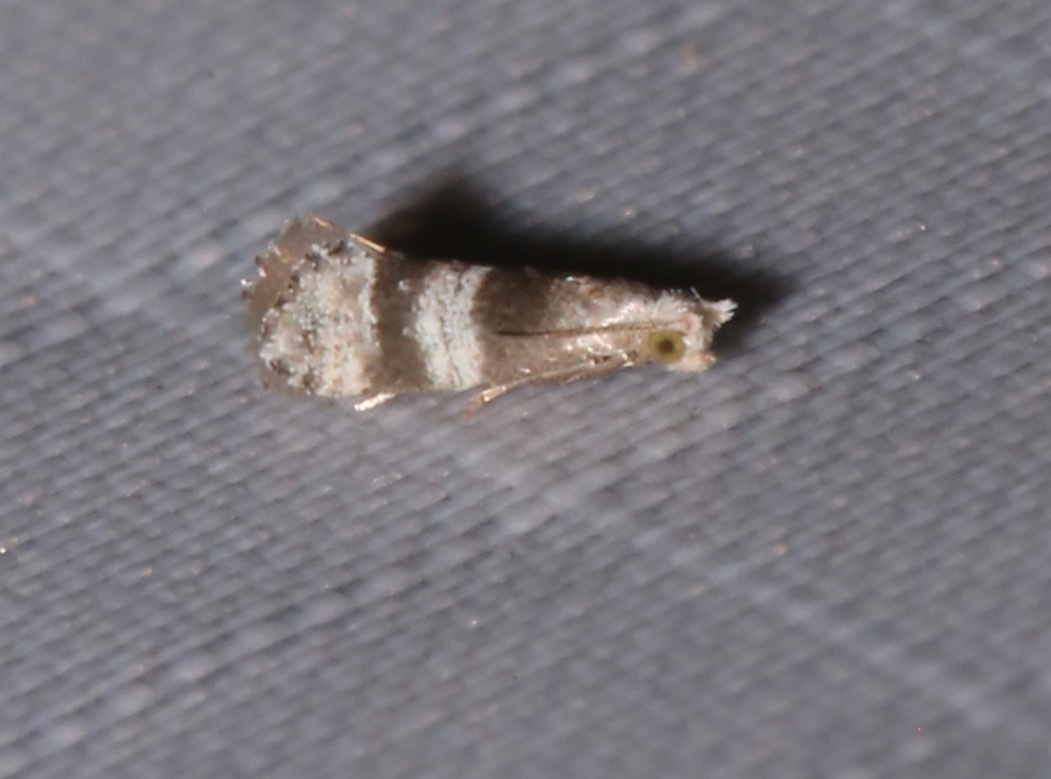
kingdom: Animalia
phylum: Arthropoda
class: Insecta
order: Lepidoptera
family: Tortricidae
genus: Corticivora
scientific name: Corticivora parva
